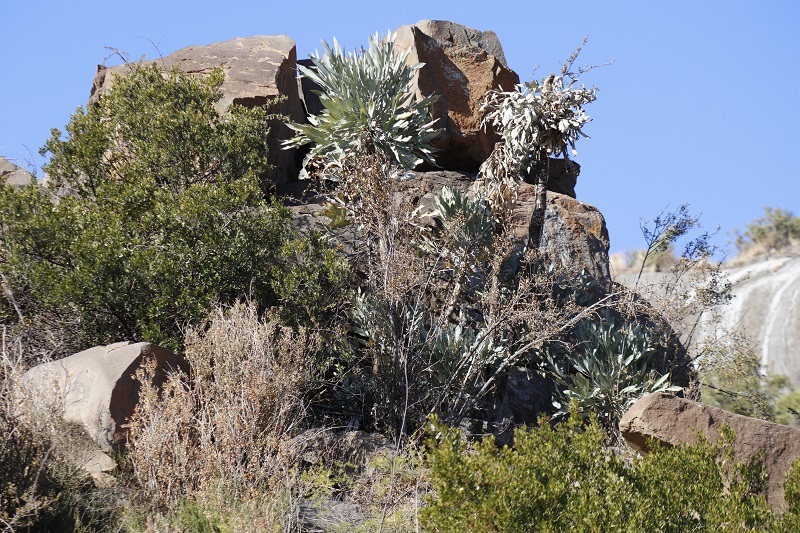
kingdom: Plantae
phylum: Tracheophyta
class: Magnoliopsida
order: Apiales
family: Araliaceae
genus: Cussonia
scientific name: Cussonia paniculata
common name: Cabbagetree
